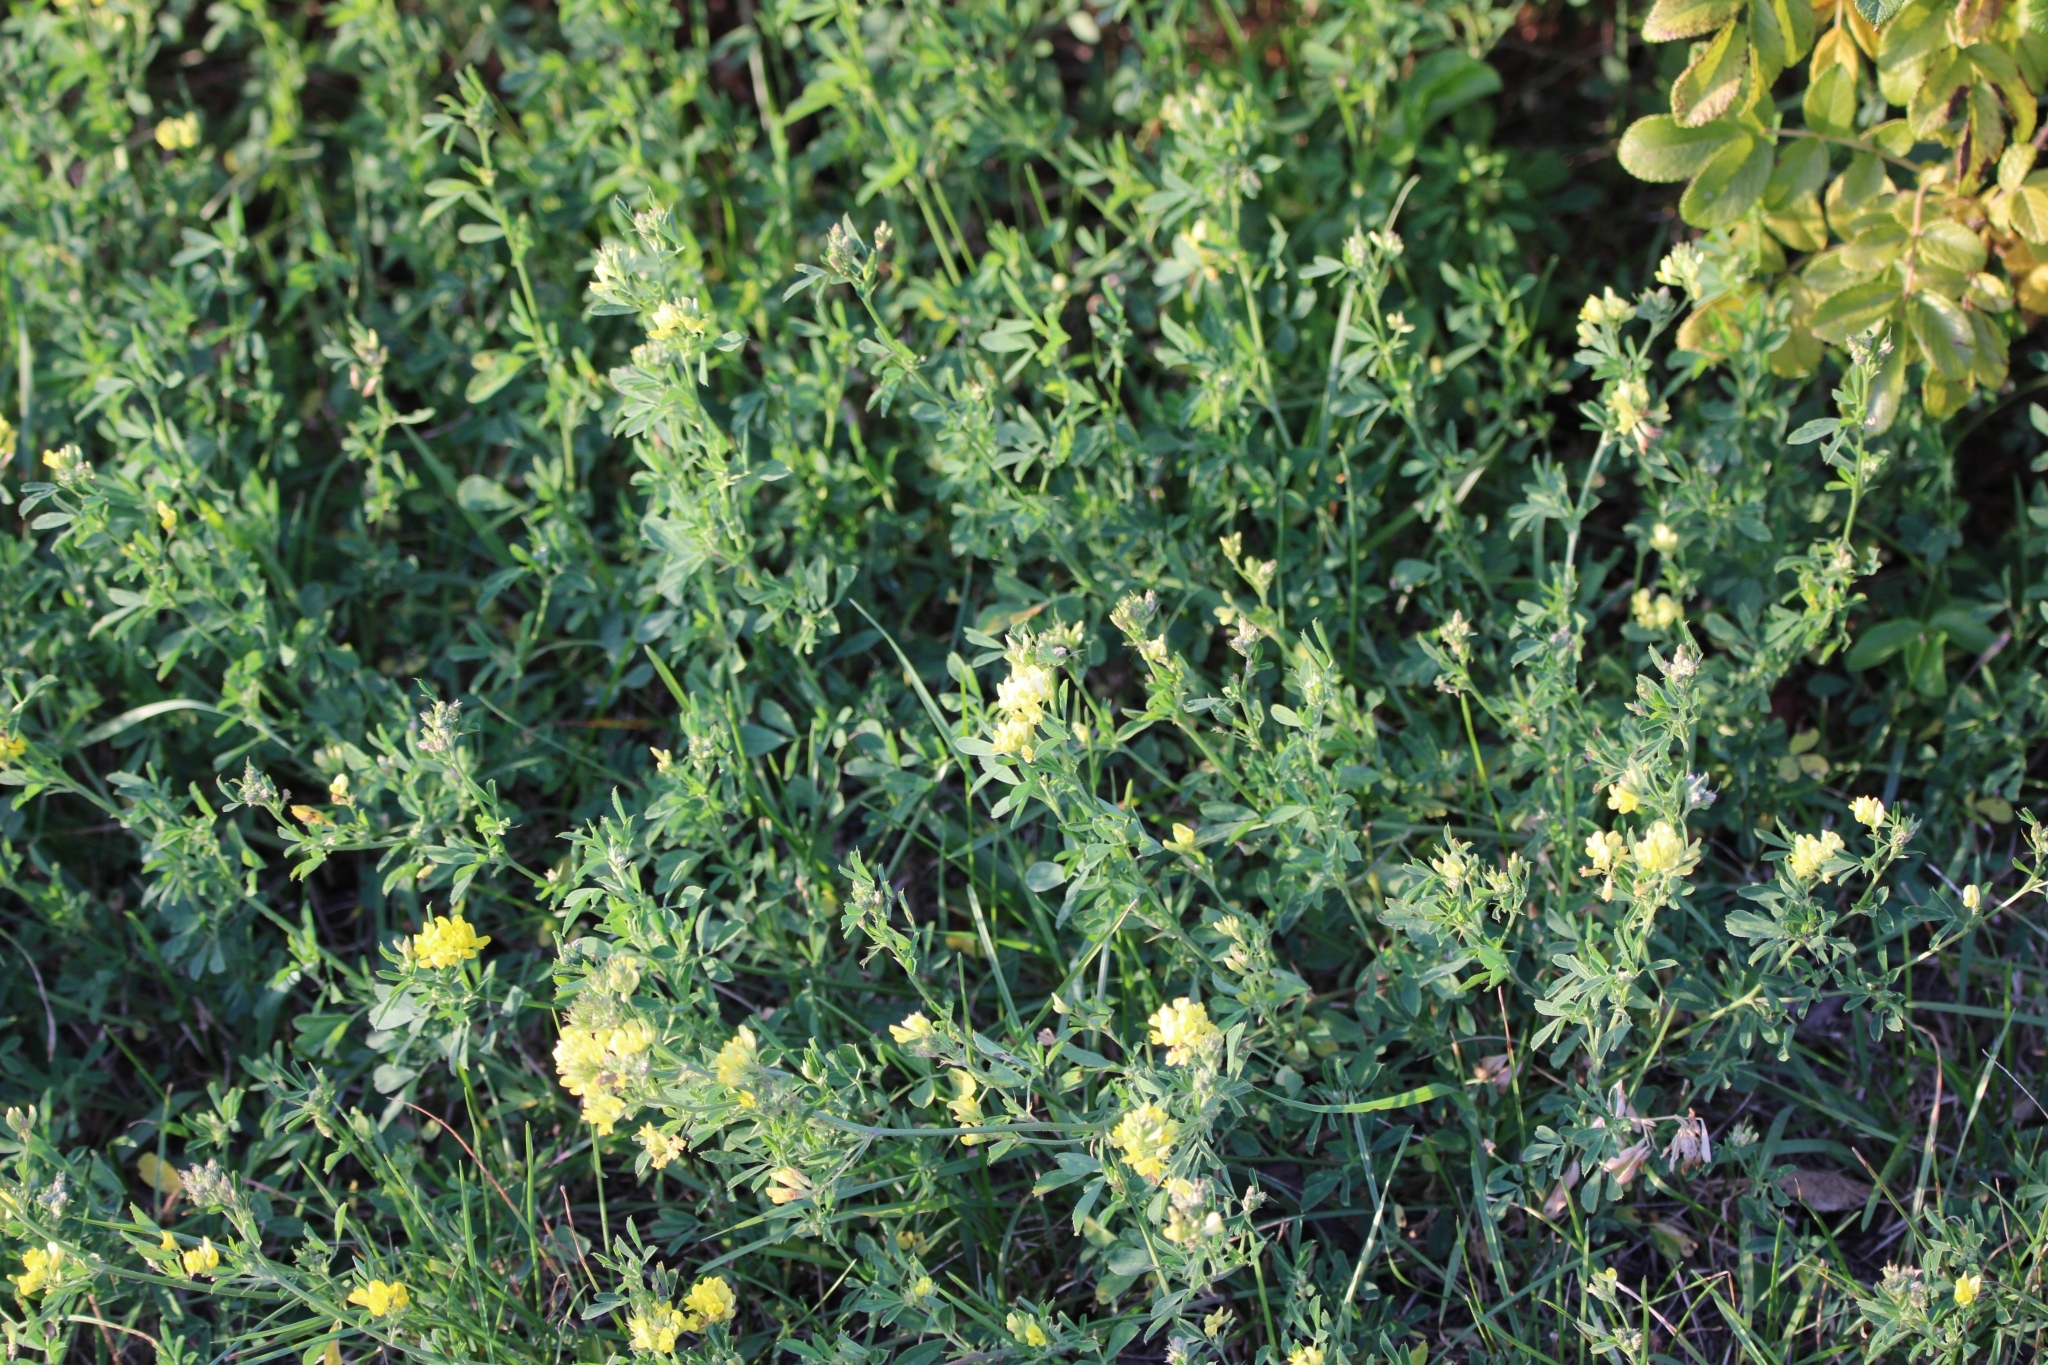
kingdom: Plantae
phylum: Tracheophyta
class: Magnoliopsida
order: Fabales
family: Fabaceae
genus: Medicago
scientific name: Medicago falcata
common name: Sickle medick
